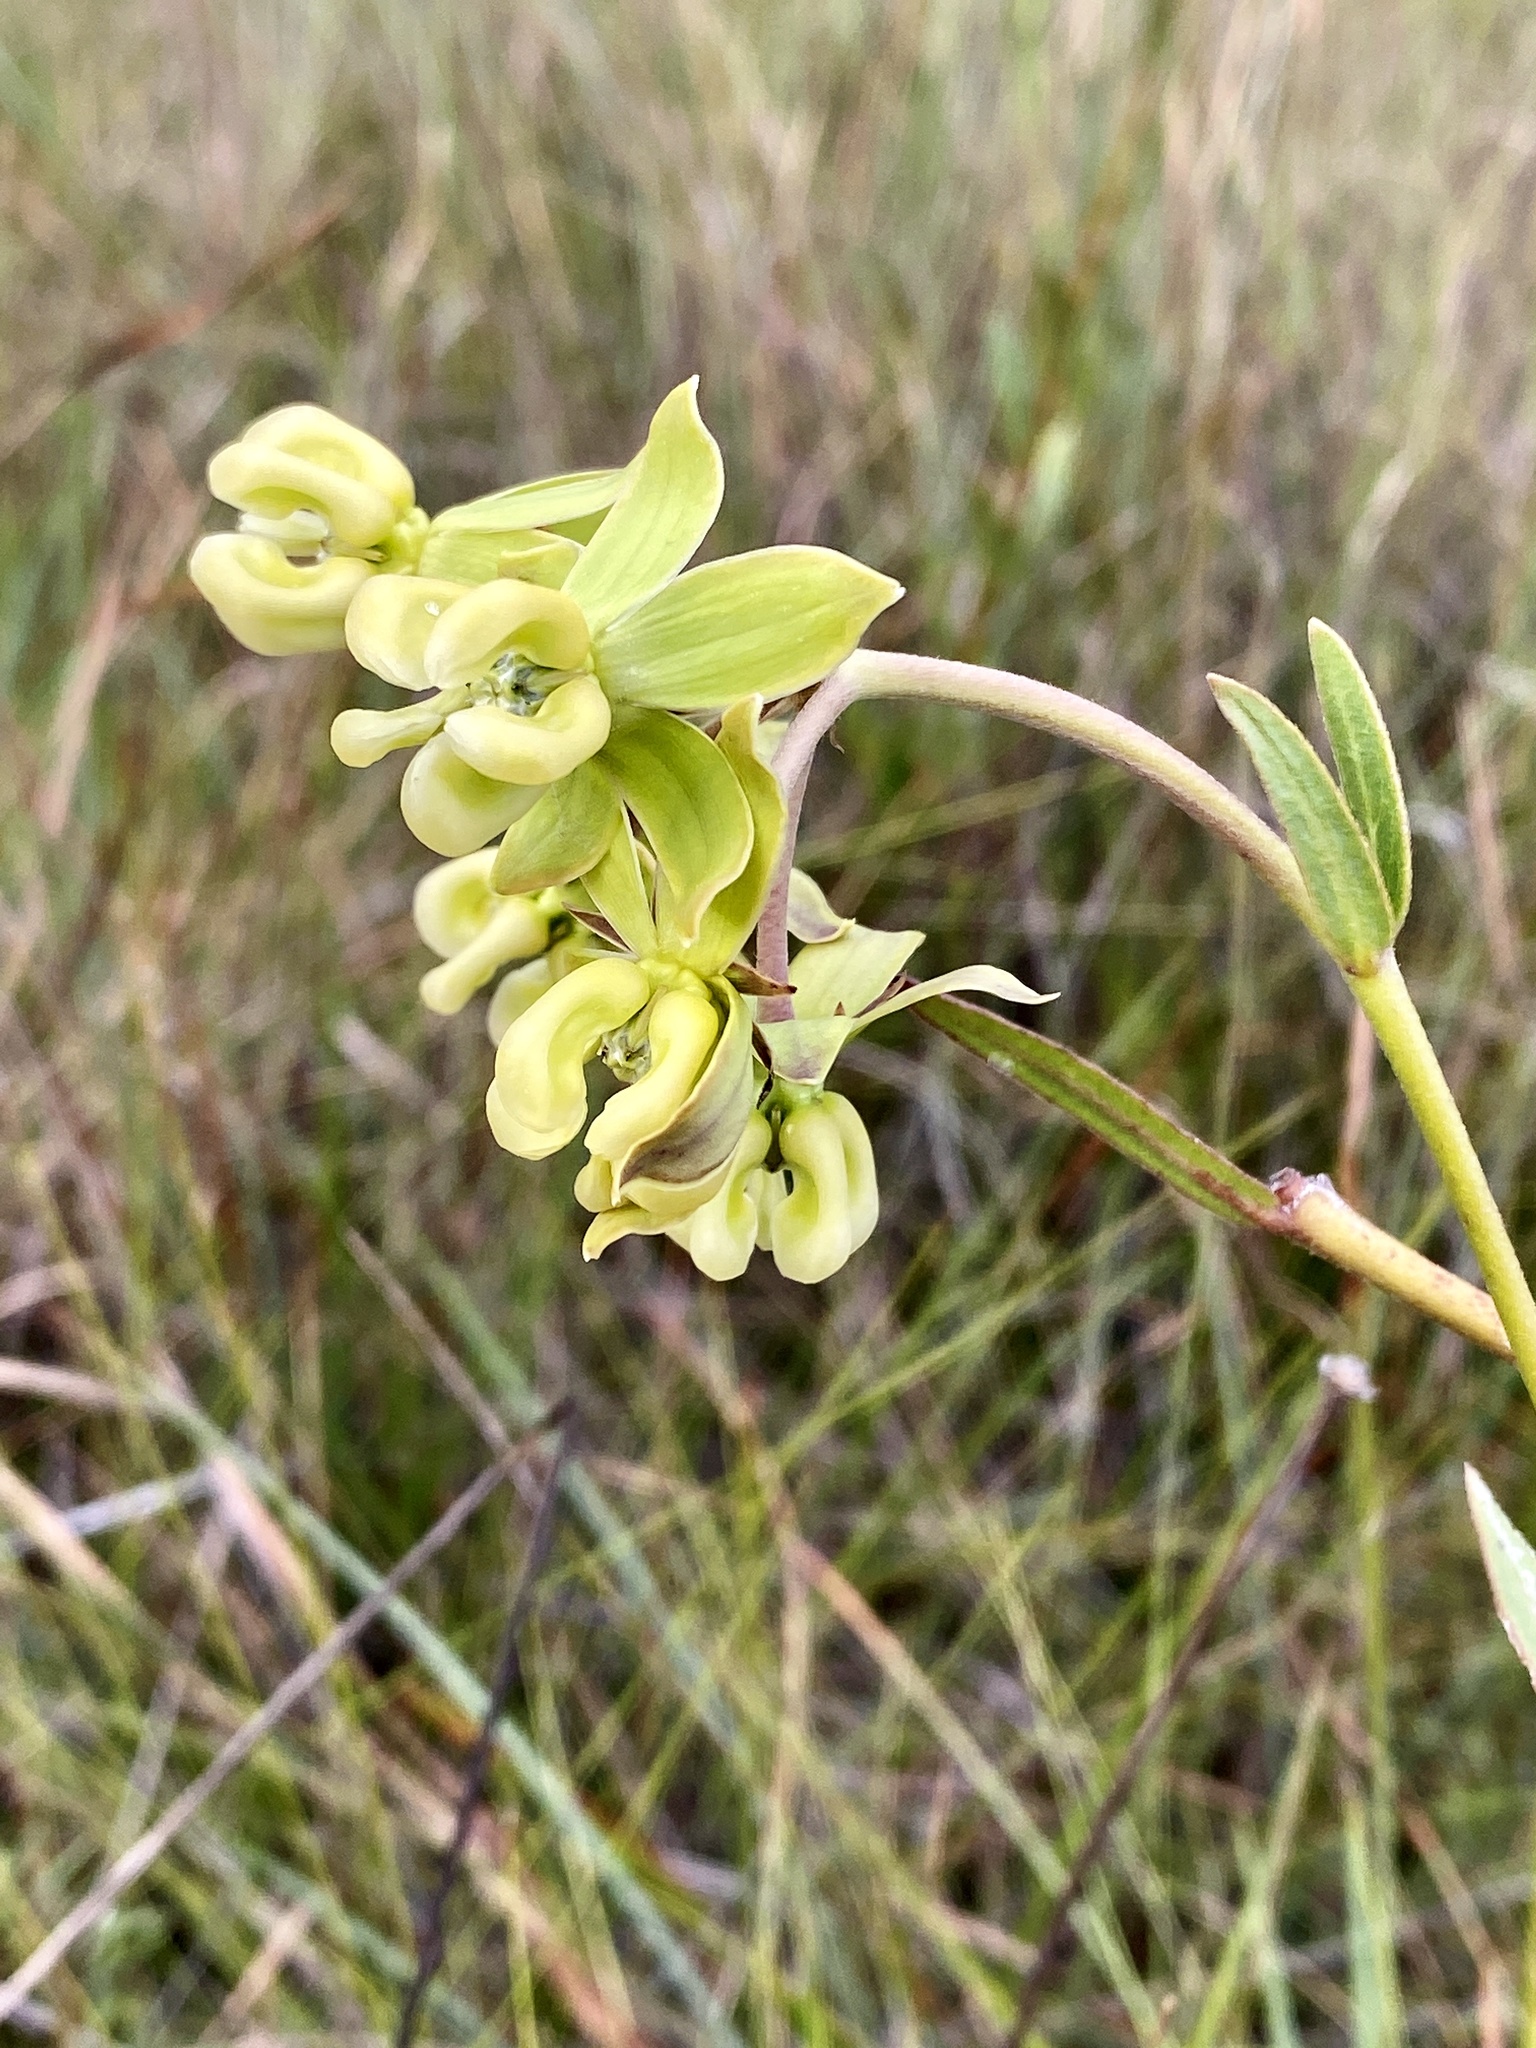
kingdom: Plantae
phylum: Tracheophyta
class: Magnoliopsida
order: Gentianales
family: Apocynaceae
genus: Asclepias
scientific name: Asclepias connivens
